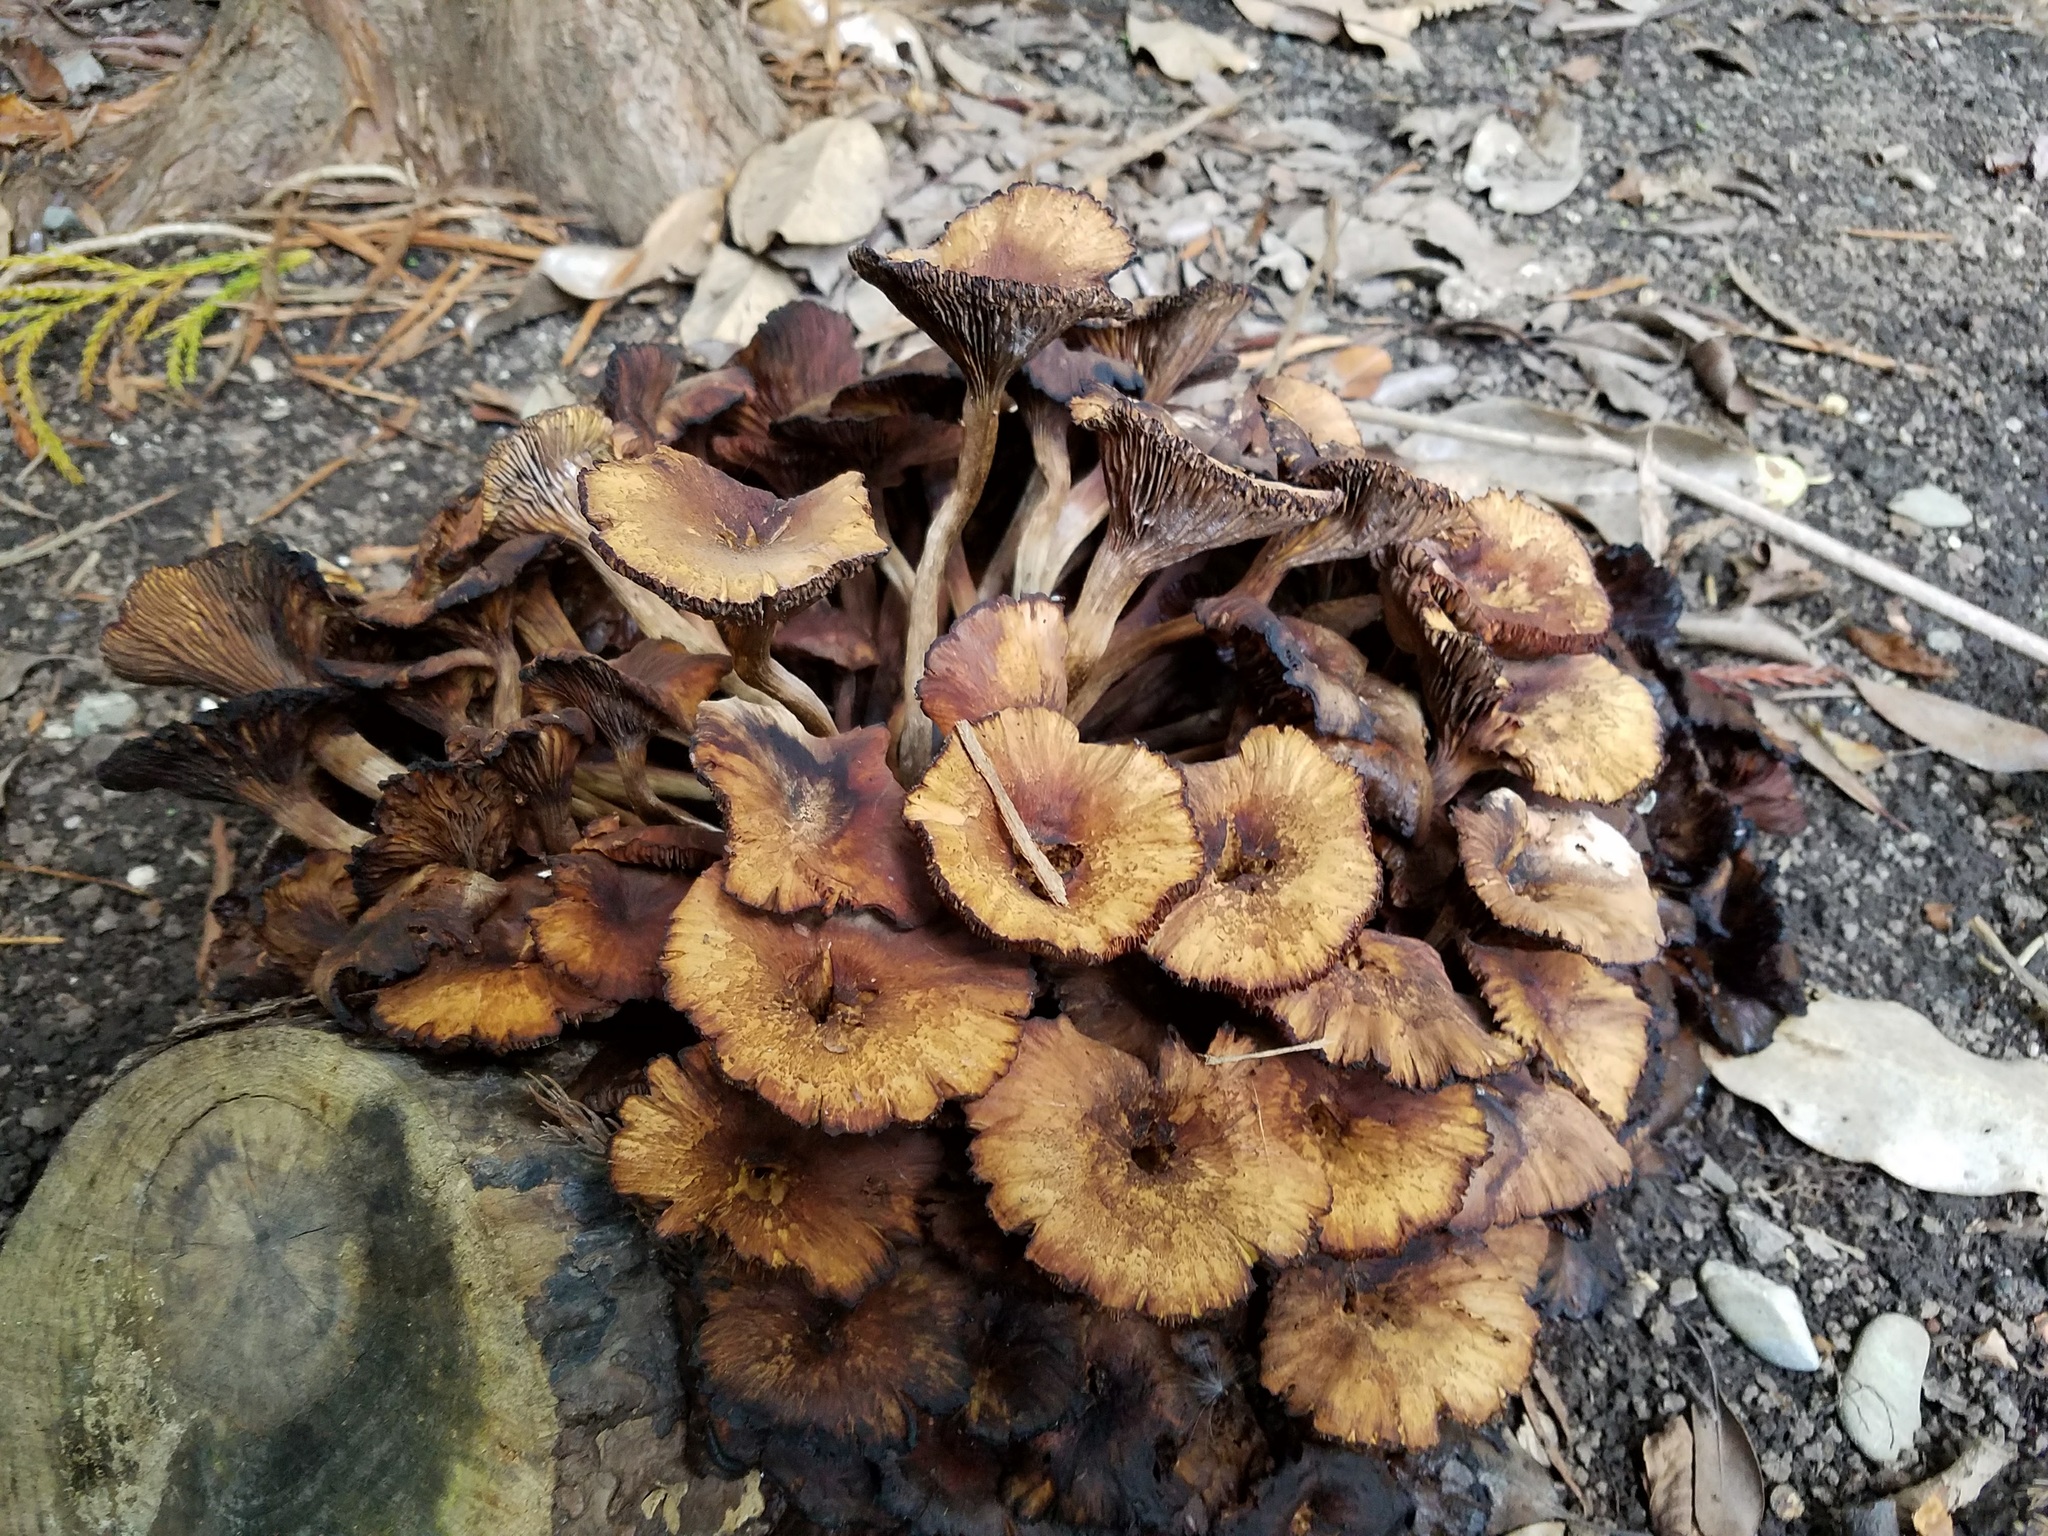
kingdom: Fungi
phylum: Basidiomycota
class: Agaricomycetes
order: Agaricales
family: Physalacriaceae
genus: Desarmillaria
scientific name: Desarmillaria caespitosa
